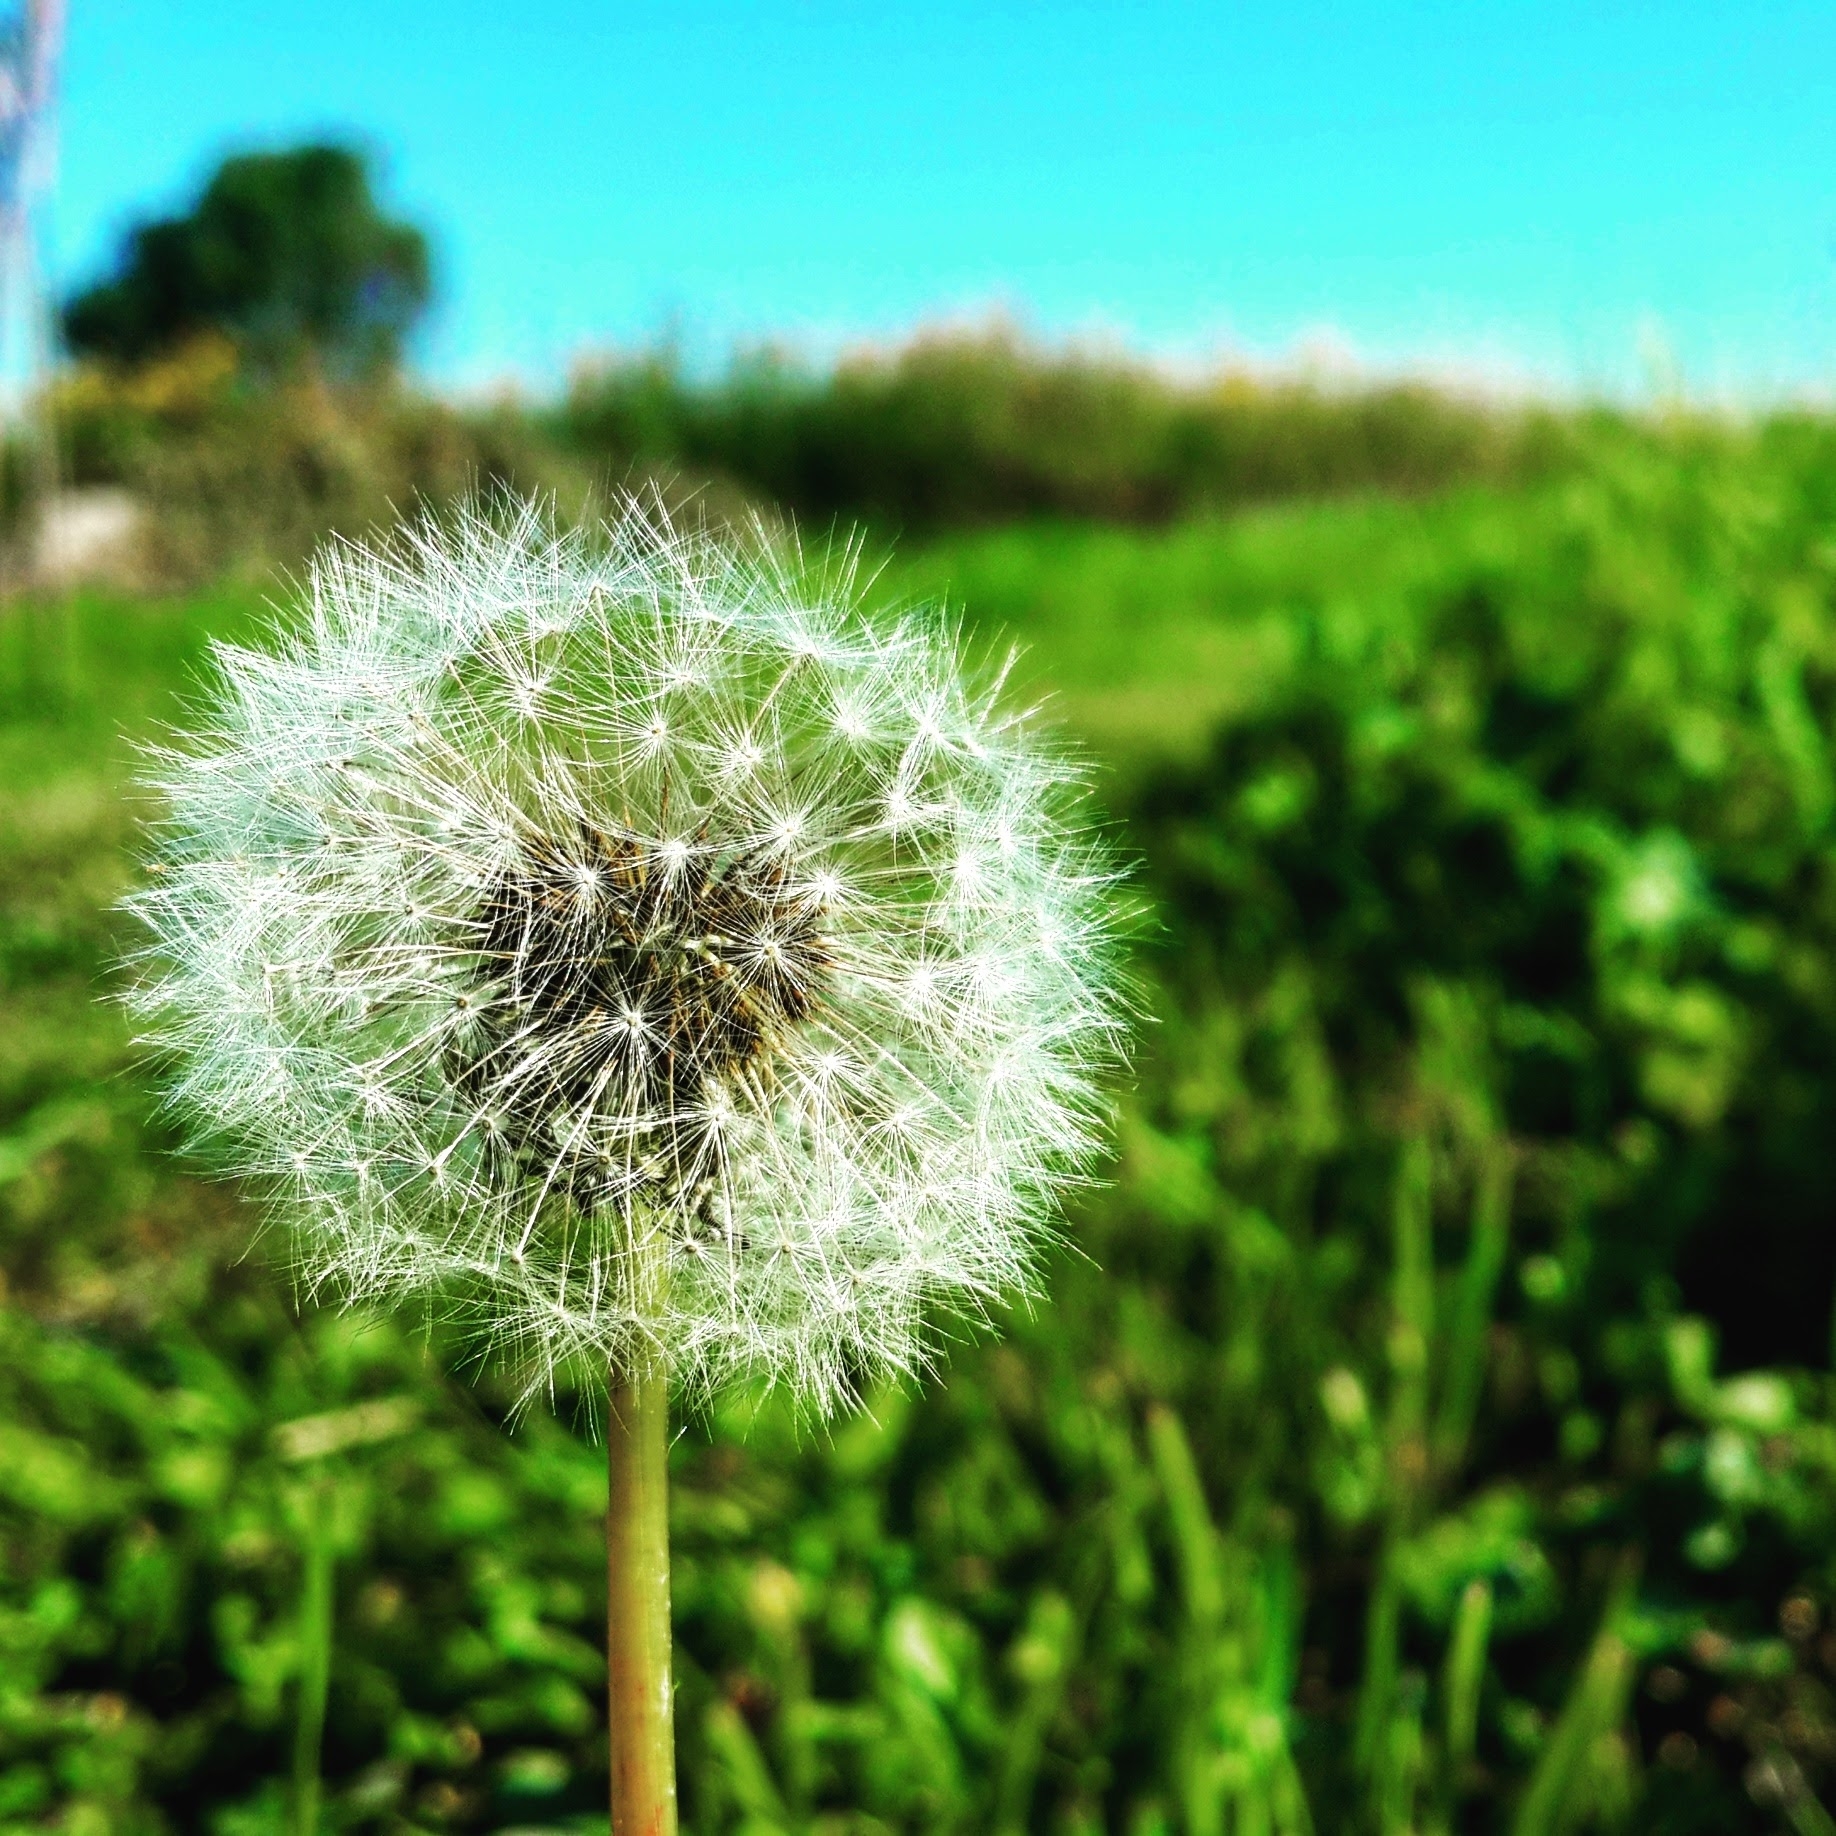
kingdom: Plantae
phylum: Tracheophyta
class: Magnoliopsida
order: Asterales
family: Asteraceae
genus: Taraxacum
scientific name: Taraxacum officinale
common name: Common dandelion
